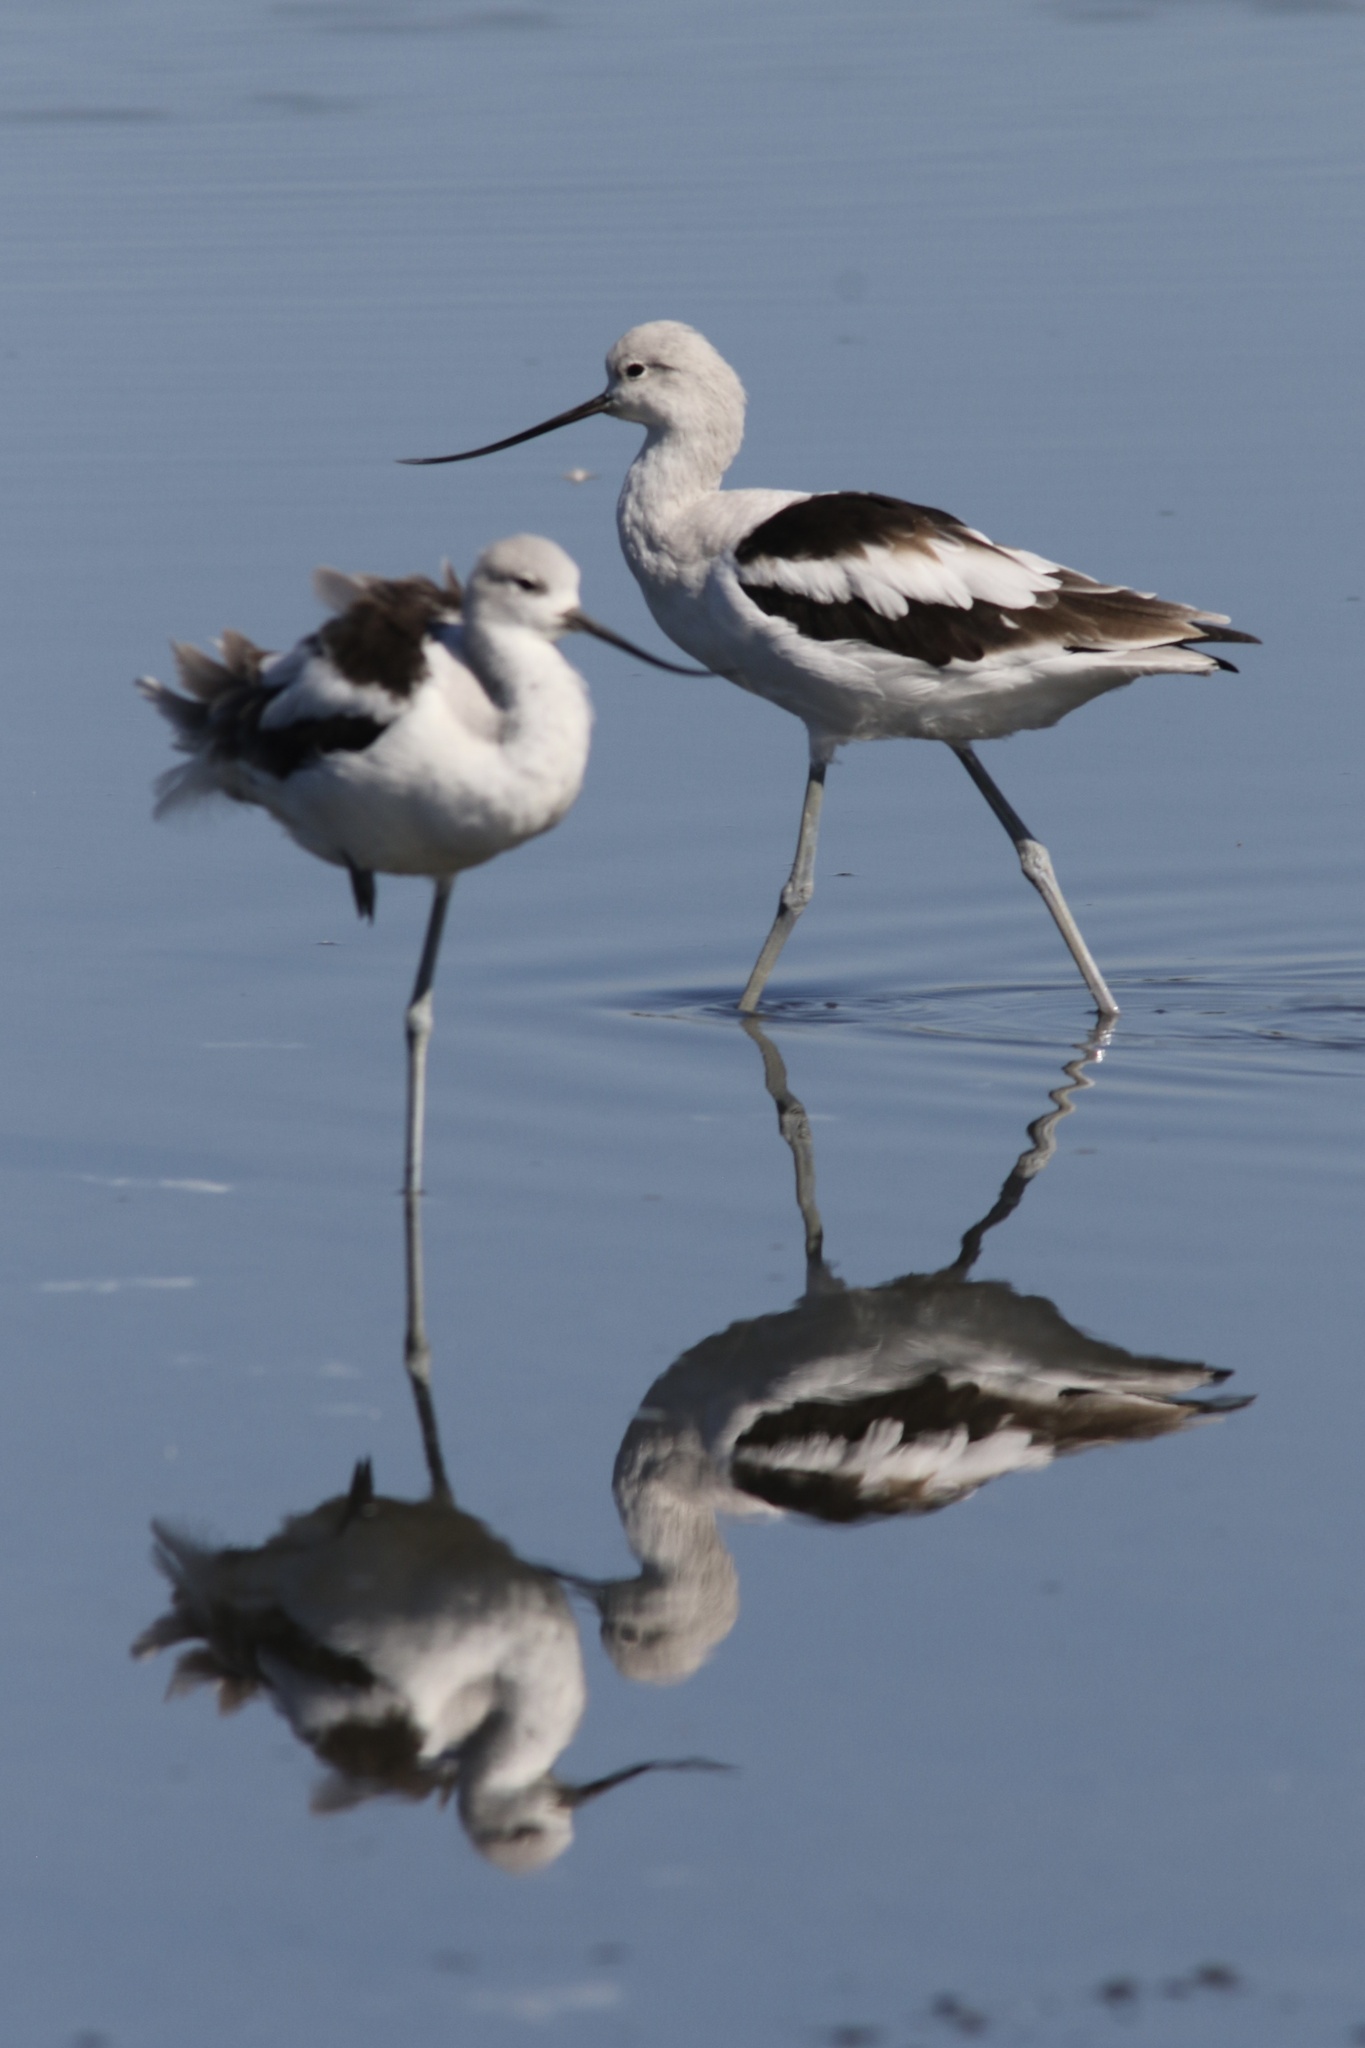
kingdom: Animalia
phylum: Chordata
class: Aves
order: Charadriiformes
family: Recurvirostridae
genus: Recurvirostra
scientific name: Recurvirostra americana
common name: American avocet
